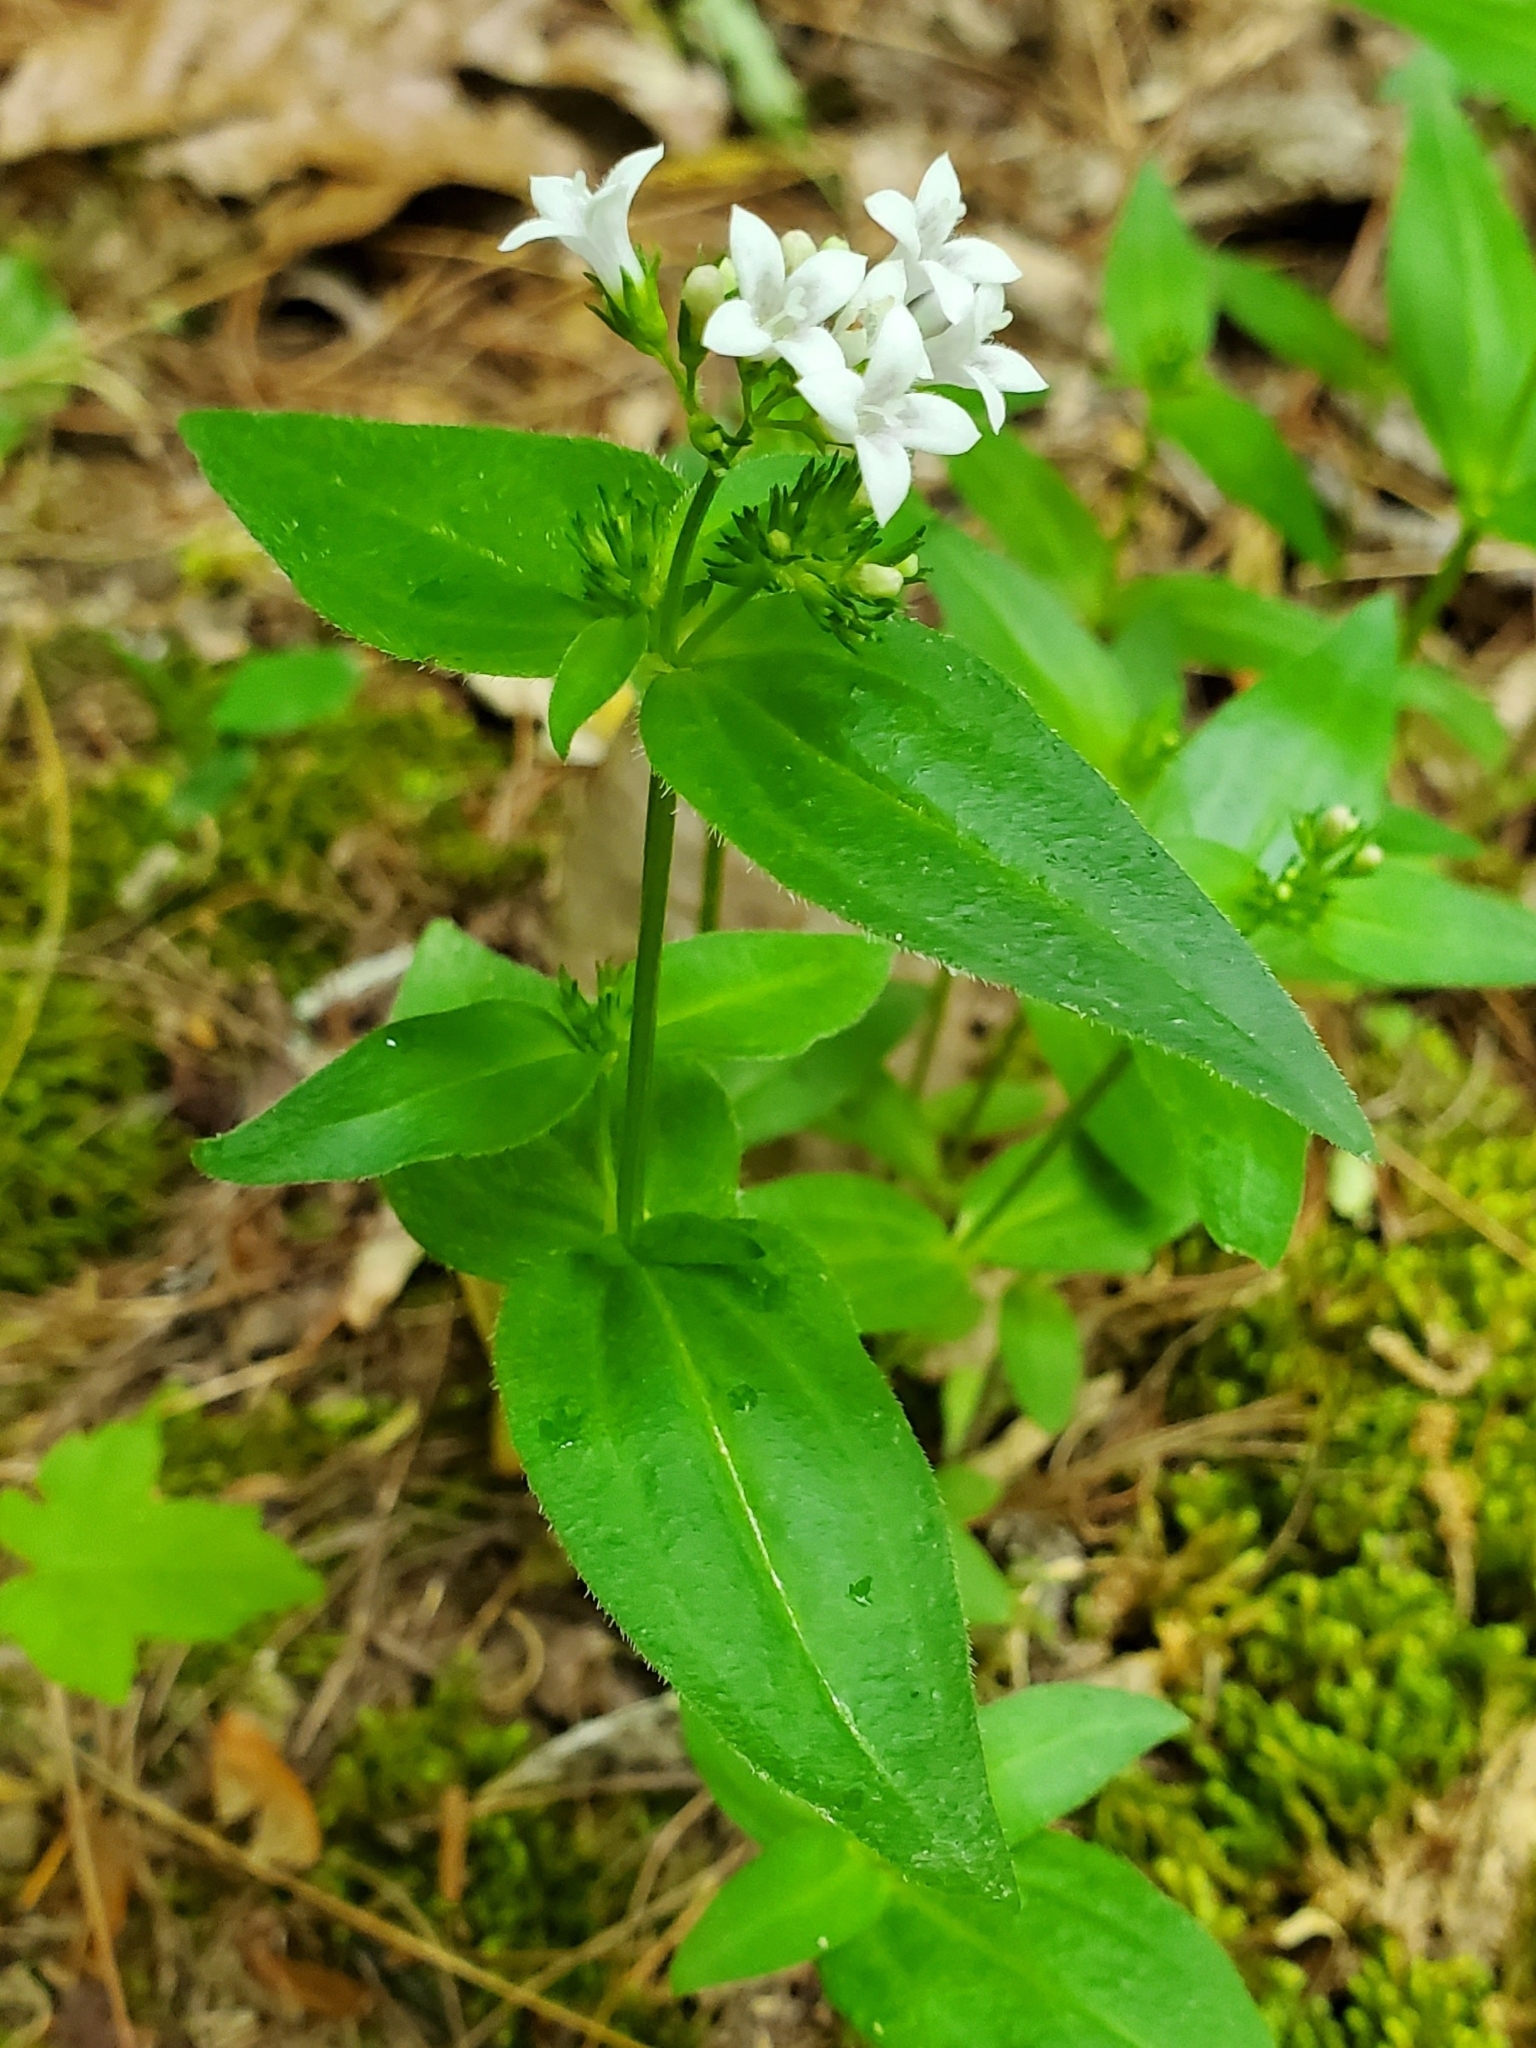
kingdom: Plantae
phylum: Tracheophyta
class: Magnoliopsida
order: Gentianales
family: Rubiaceae
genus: Houstonia
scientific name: Houstonia purpurea
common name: Summer bluet
